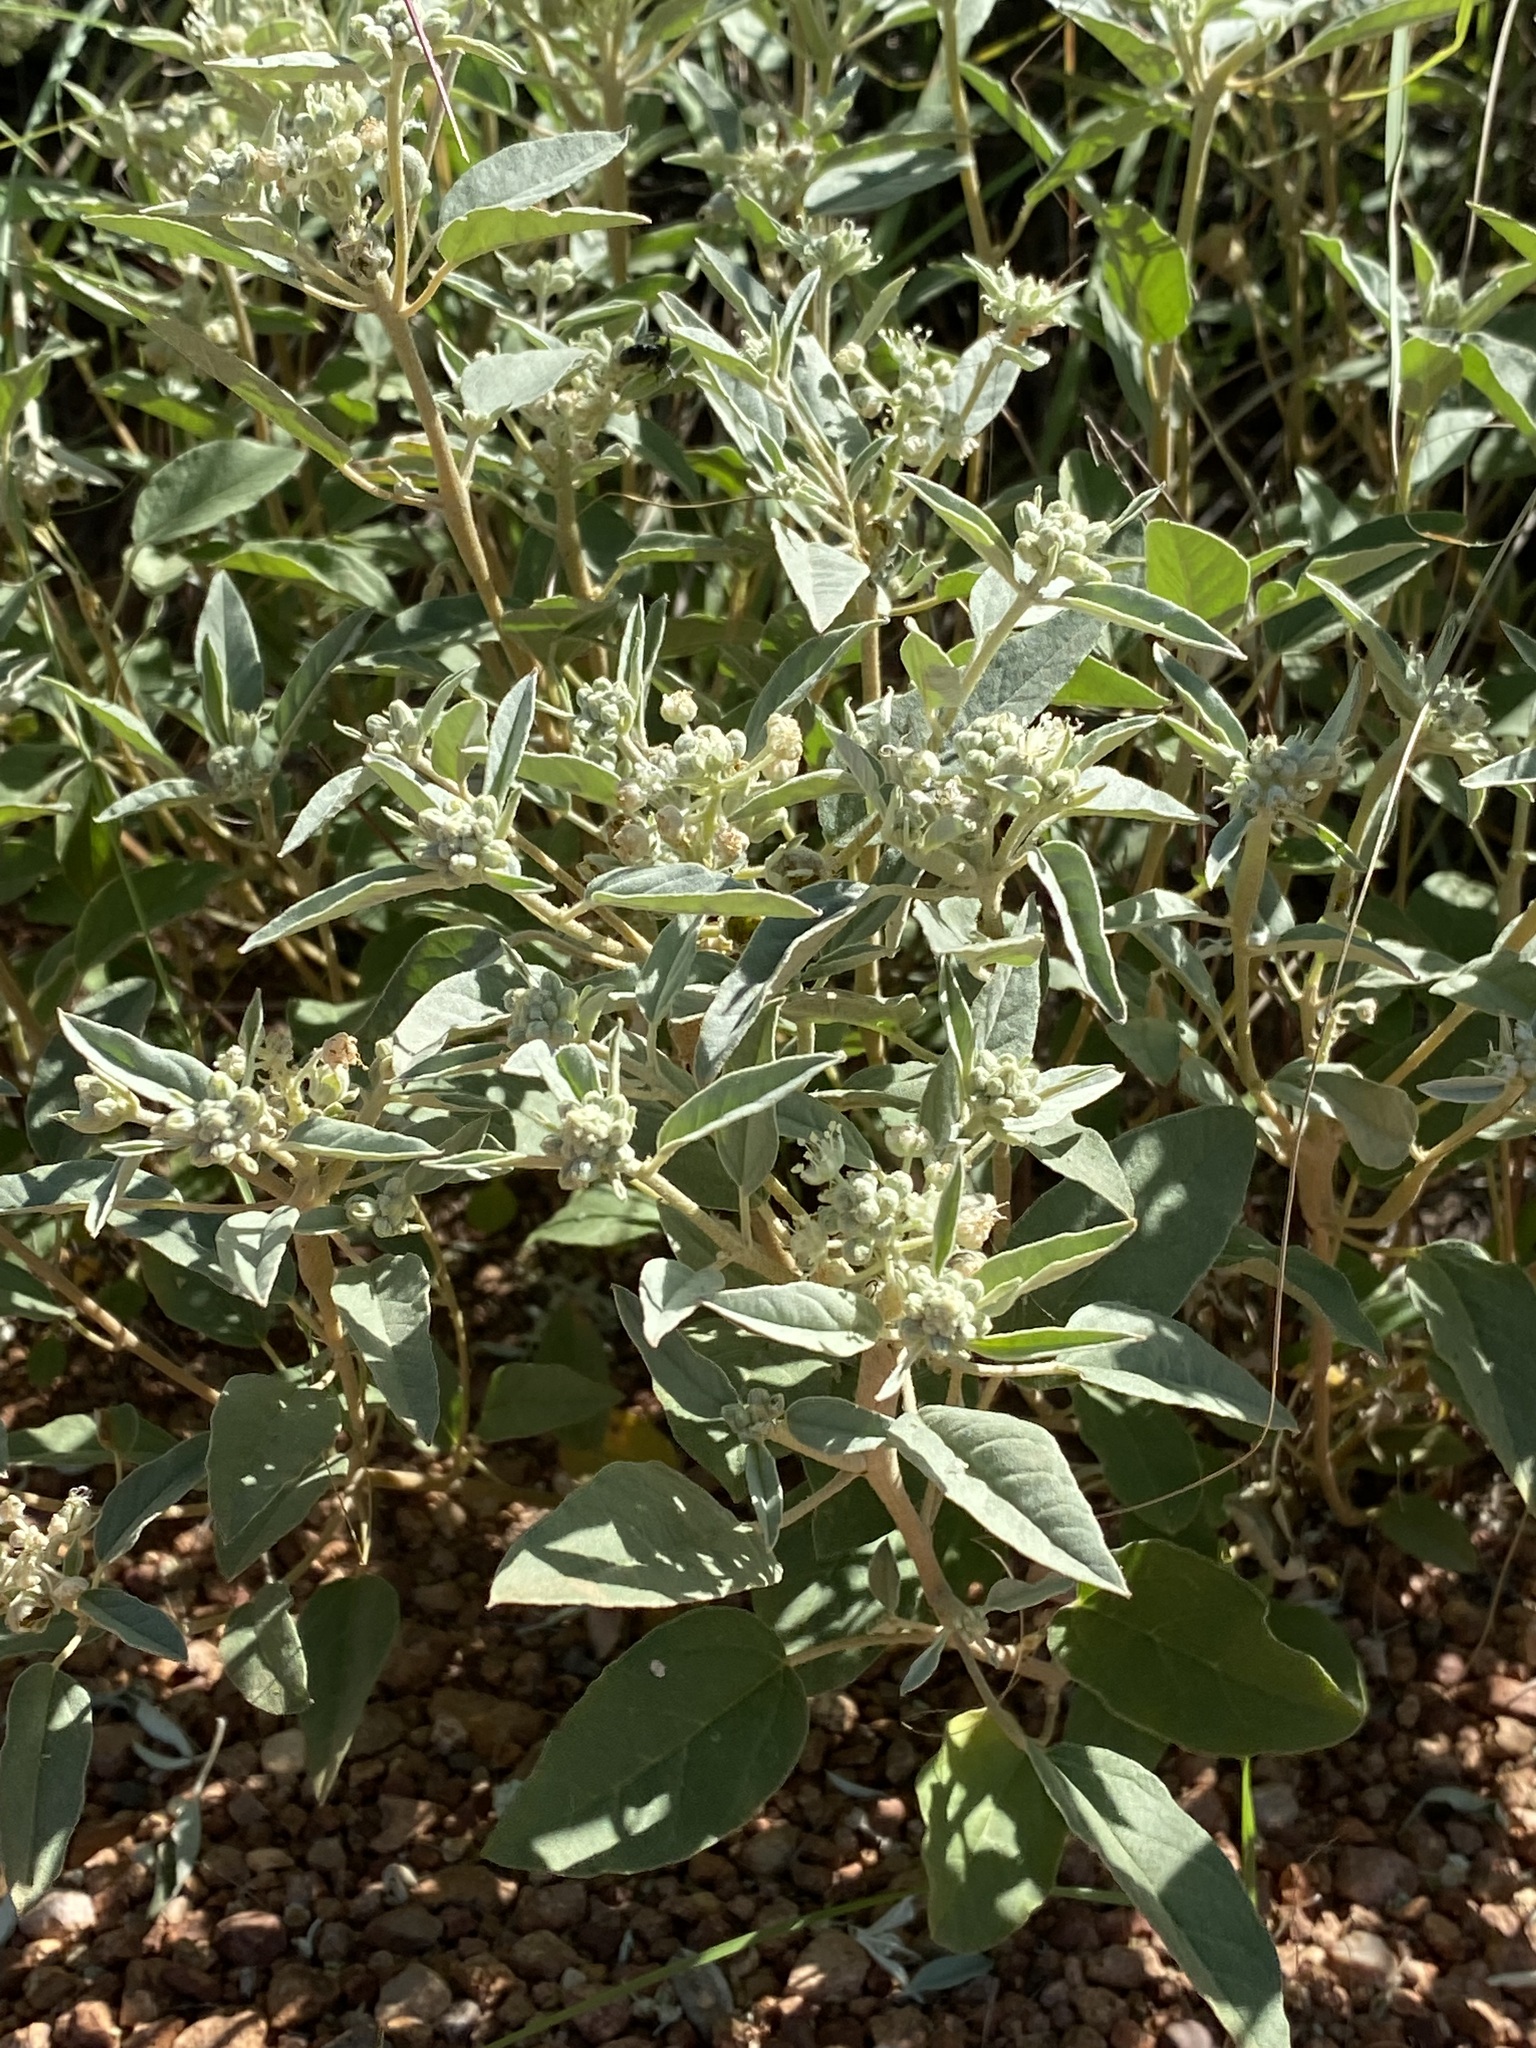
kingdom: Plantae
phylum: Tracheophyta
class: Magnoliopsida
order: Malpighiales
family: Euphorbiaceae
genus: Croton
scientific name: Croton pottsii
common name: Leatherweed
